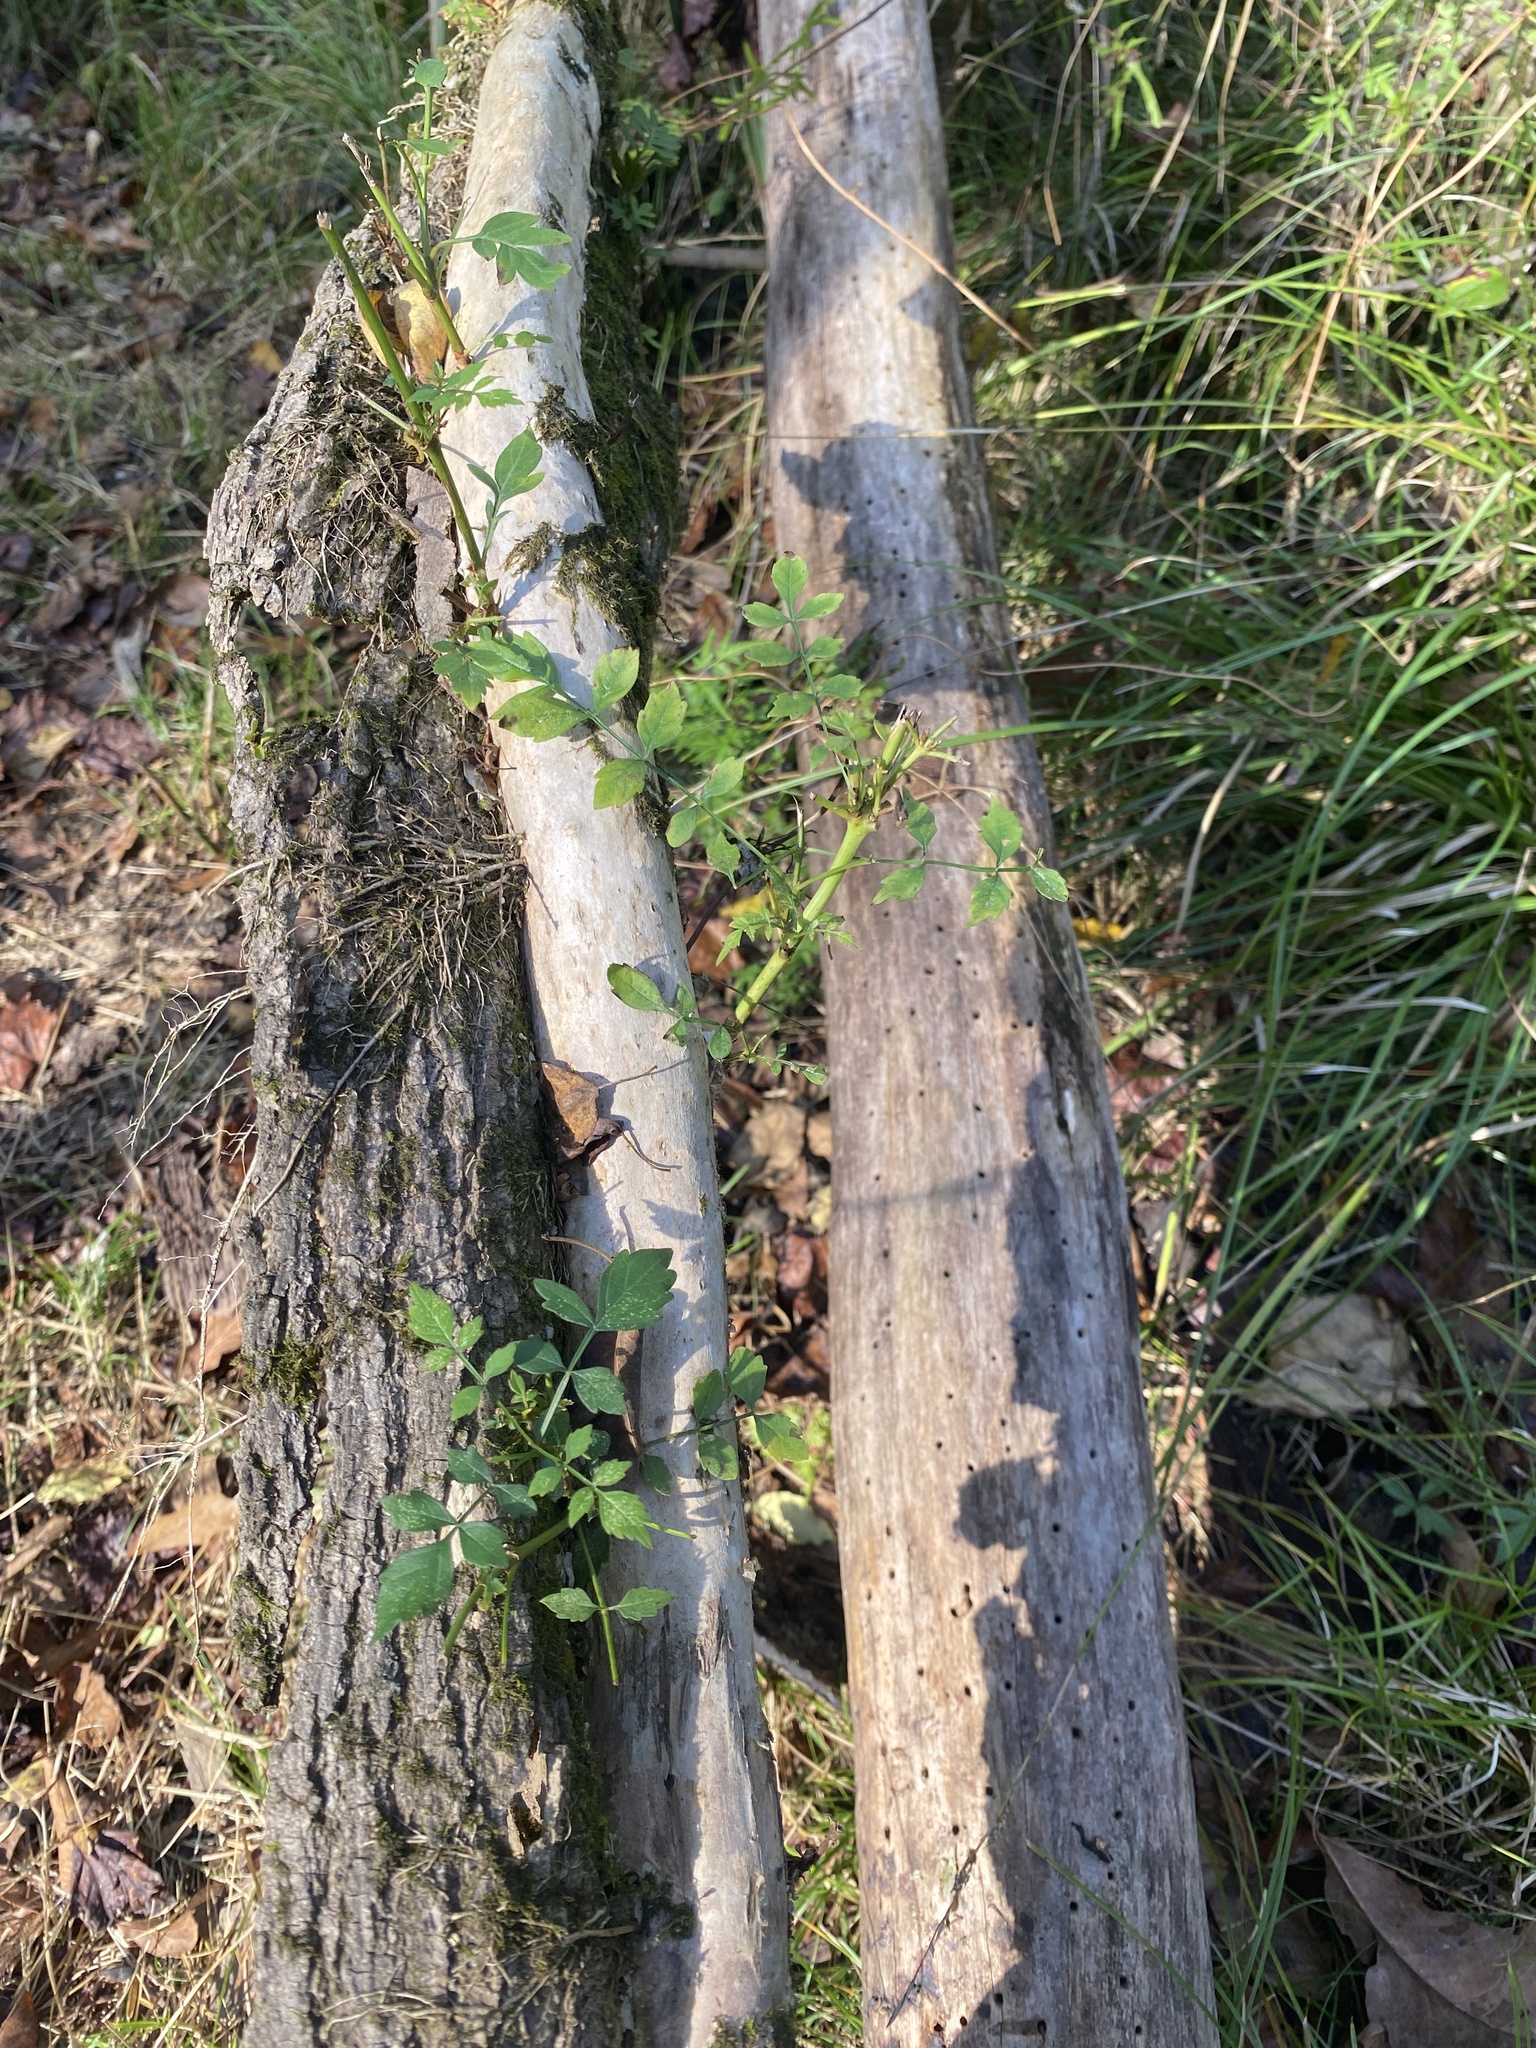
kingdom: Plantae
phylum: Tracheophyta
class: Magnoliopsida
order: Lamiales
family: Bignoniaceae
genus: Campsis
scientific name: Campsis radicans
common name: Trumpet-creeper
